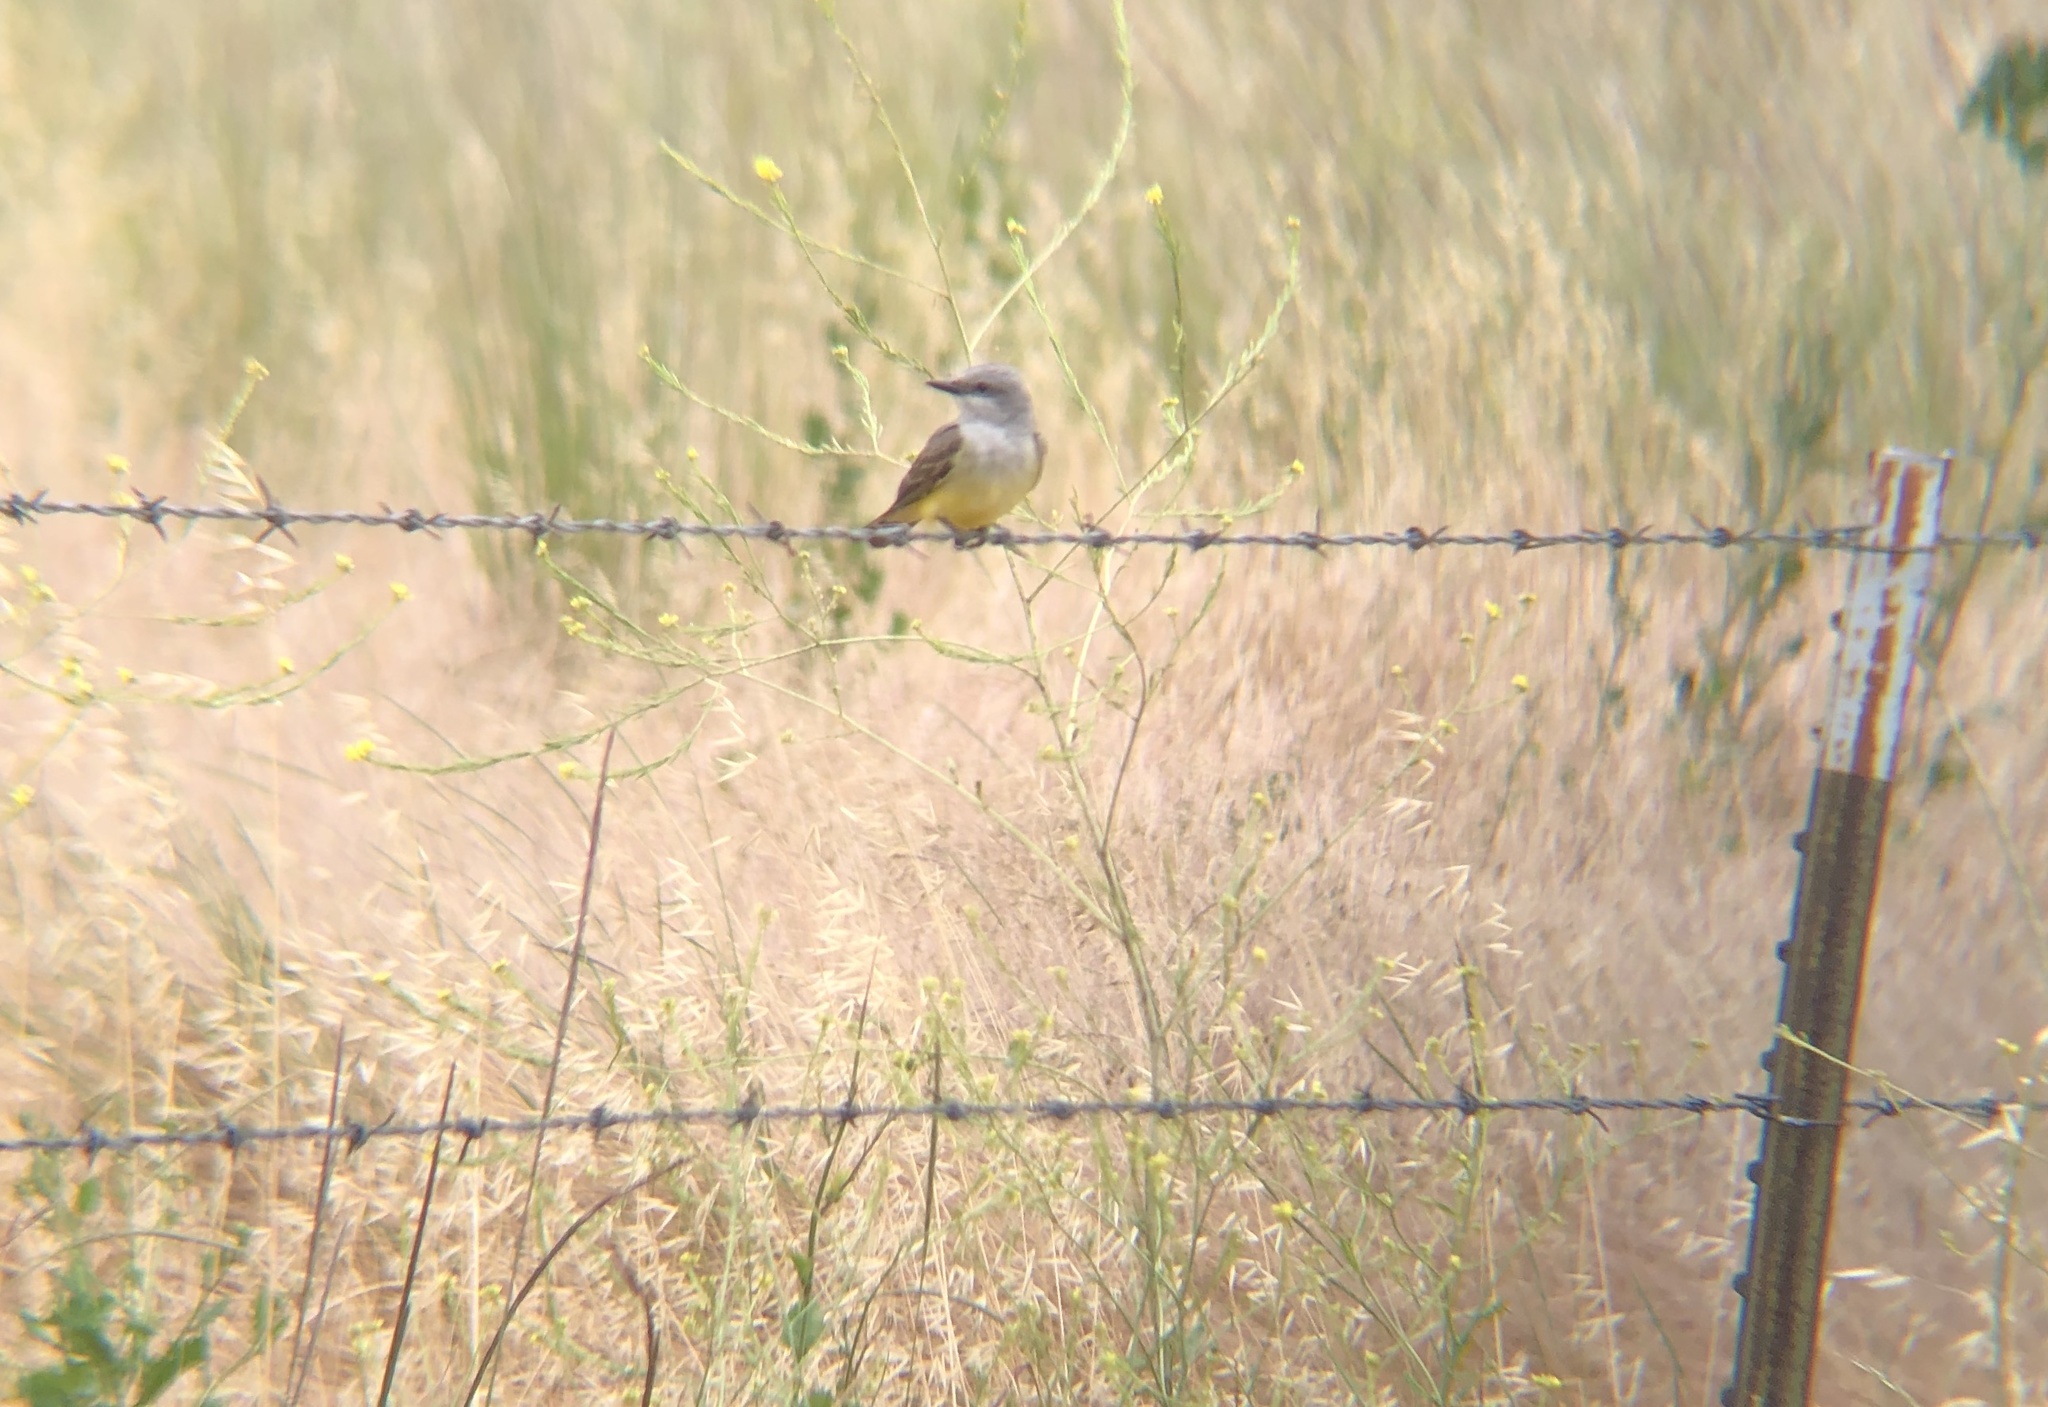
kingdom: Animalia
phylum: Chordata
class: Aves
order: Passeriformes
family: Tyrannidae
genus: Tyrannus
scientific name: Tyrannus verticalis
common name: Western kingbird
